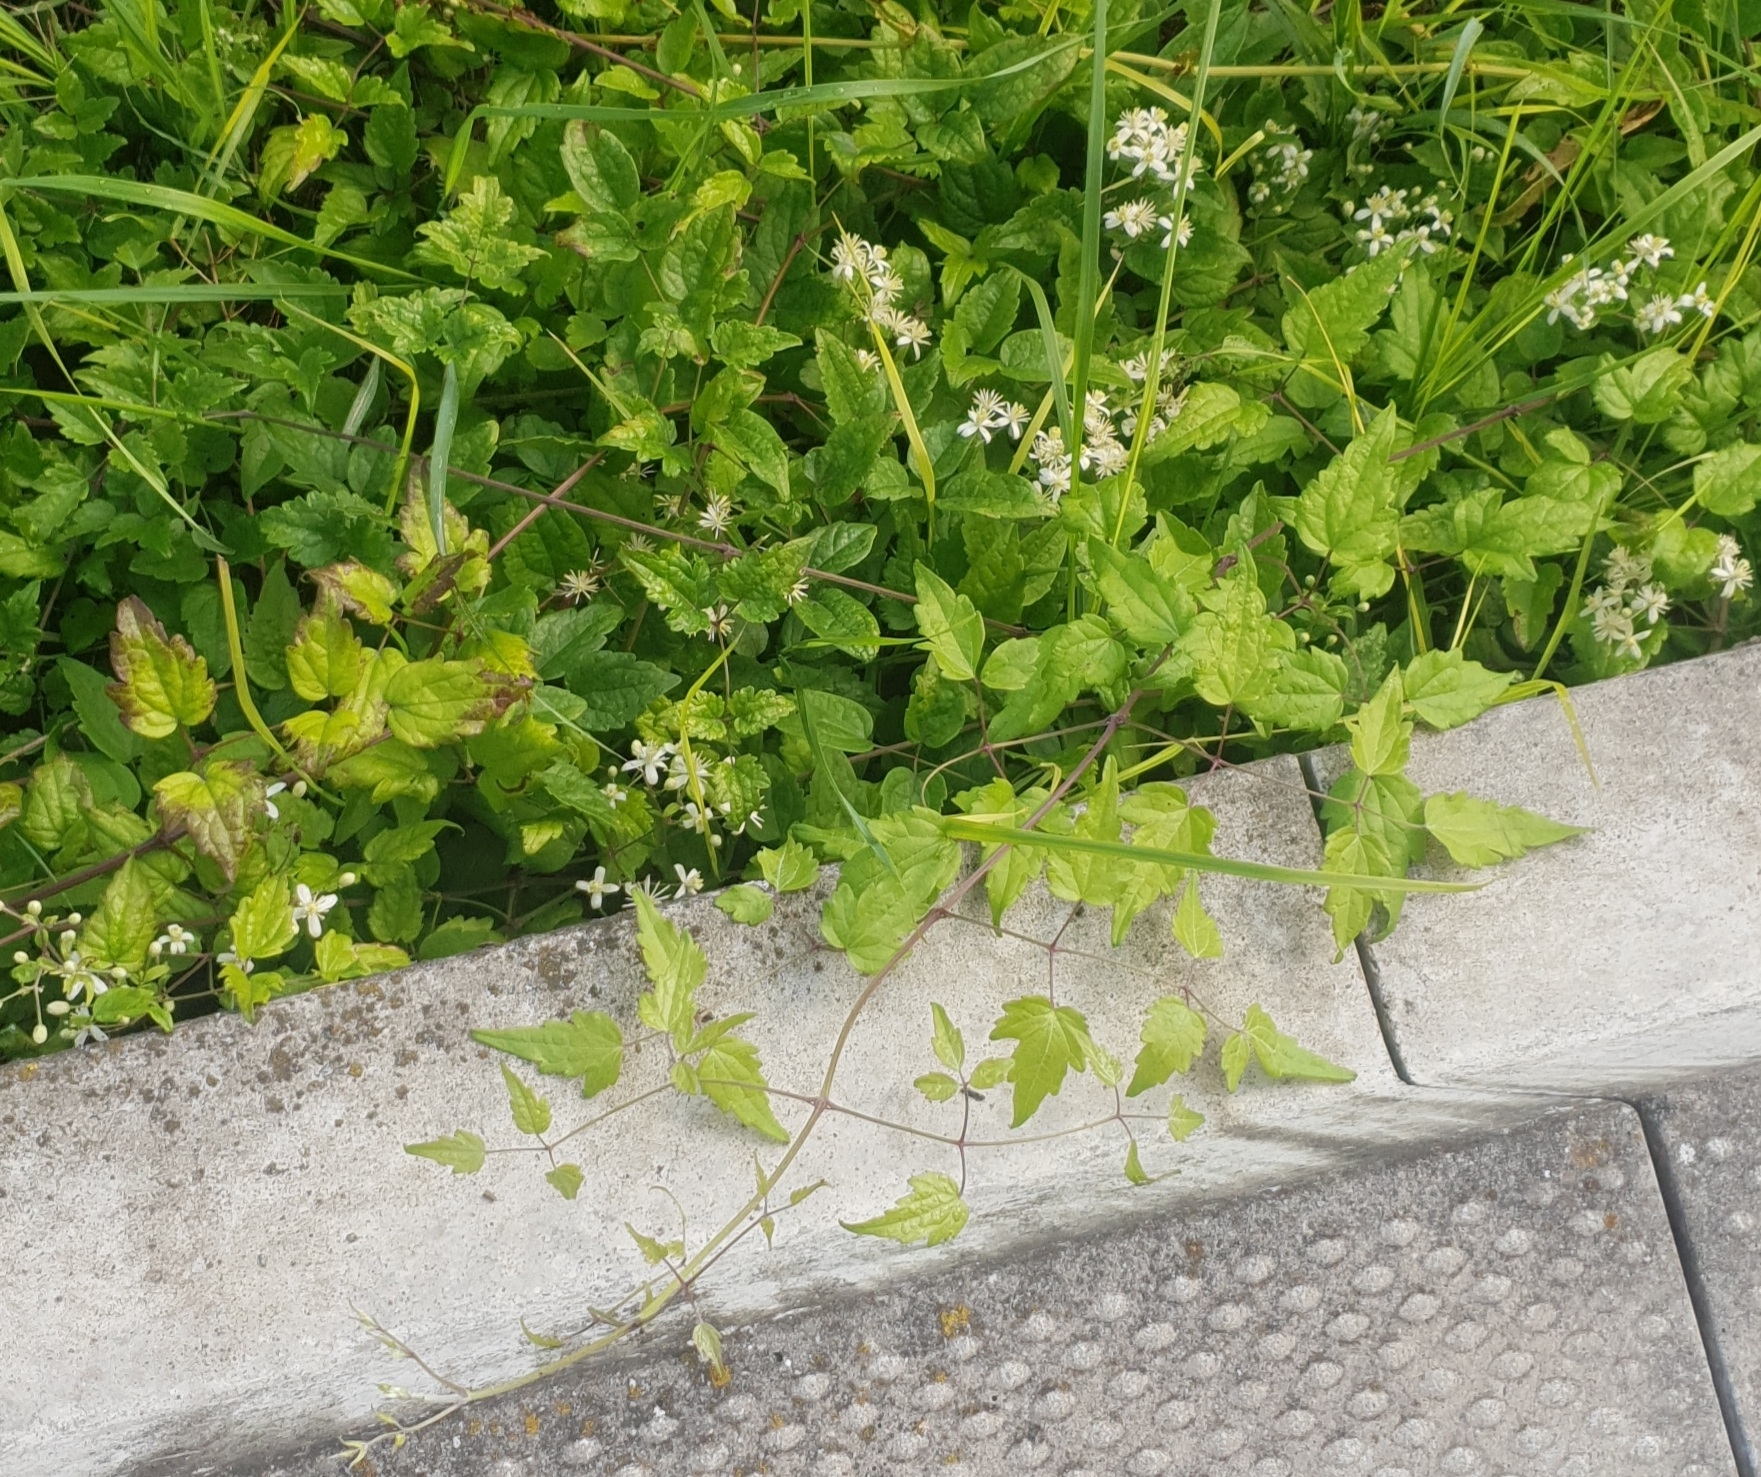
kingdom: Plantae
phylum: Tracheophyta
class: Magnoliopsida
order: Ranunculales
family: Ranunculaceae
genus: Clematis
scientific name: Clematis vitalba
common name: Evergreen clematis
